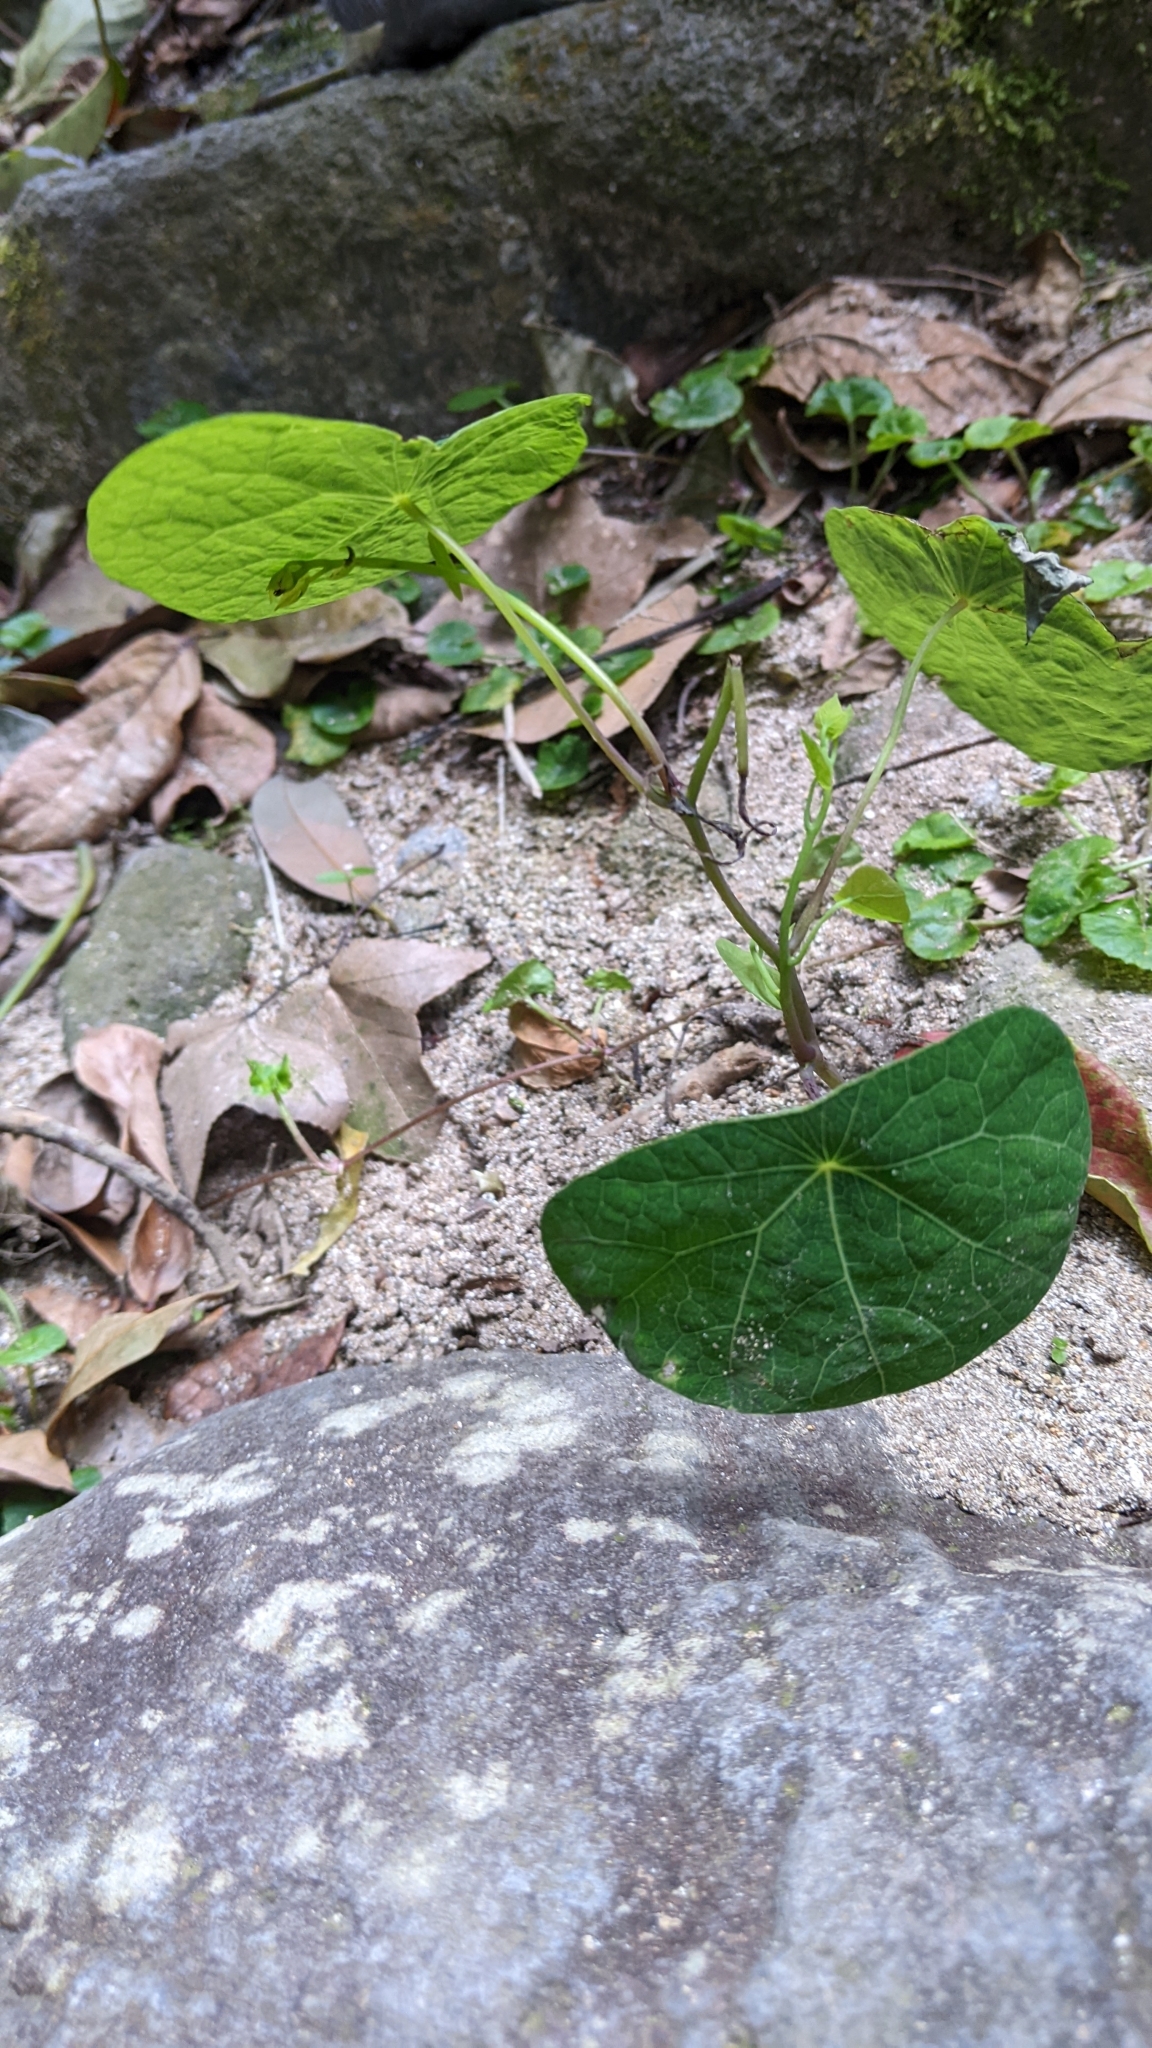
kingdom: Plantae
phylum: Tracheophyta
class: Magnoliopsida
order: Ranunculales
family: Menispermaceae
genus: Stephania
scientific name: Stephania cephalantha
